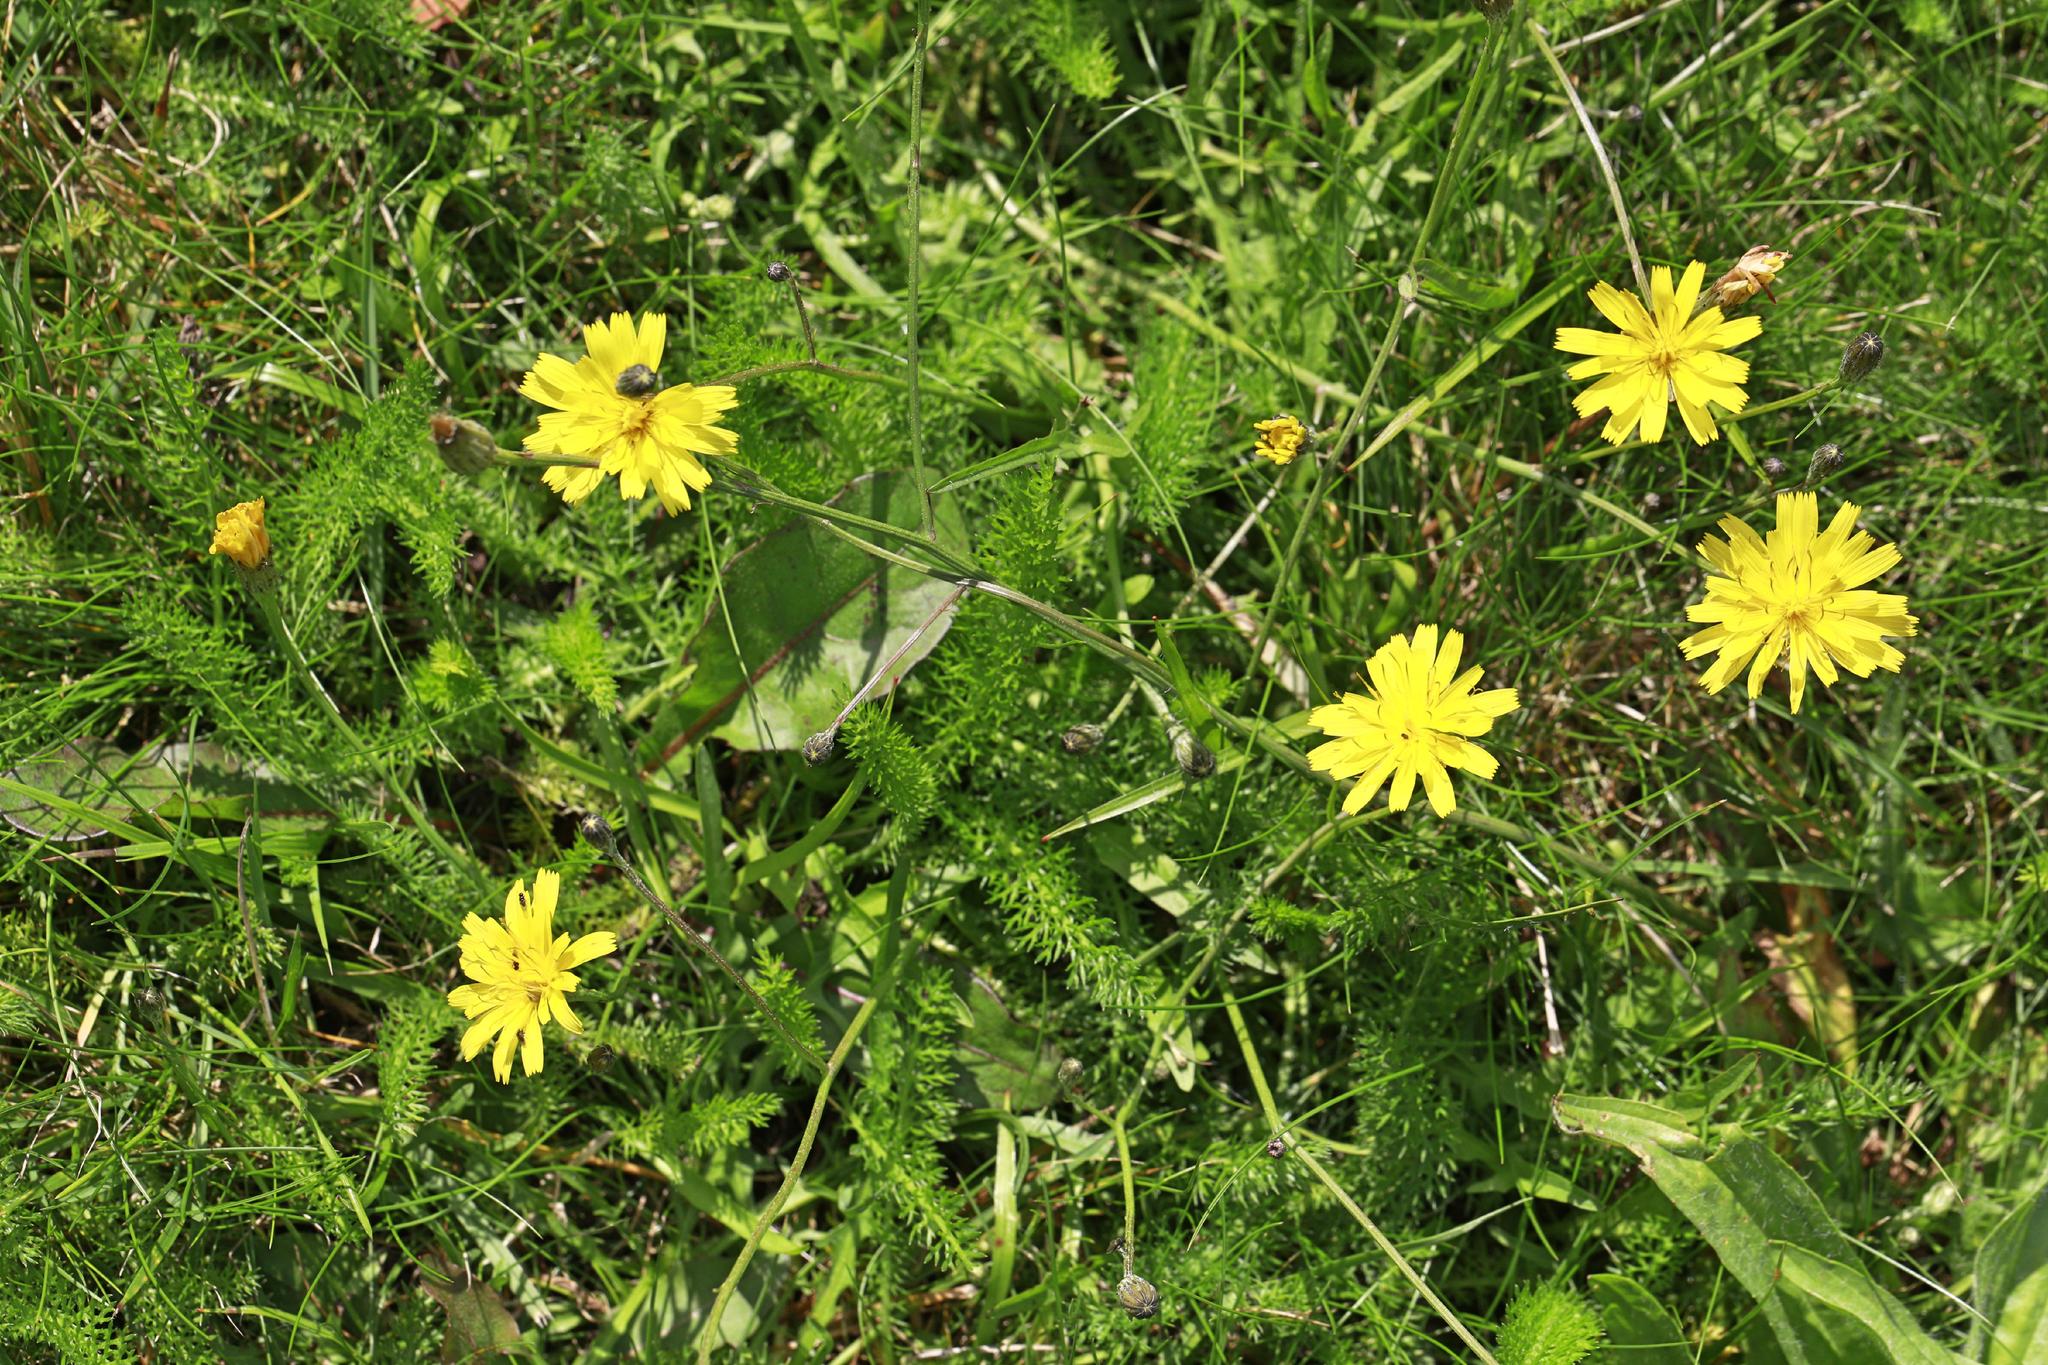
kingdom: Plantae
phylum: Tracheophyta
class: Magnoliopsida
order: Asterales
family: Asteraceae
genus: Hypochaeris
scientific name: Hypochaeris radicata
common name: Flatweed
